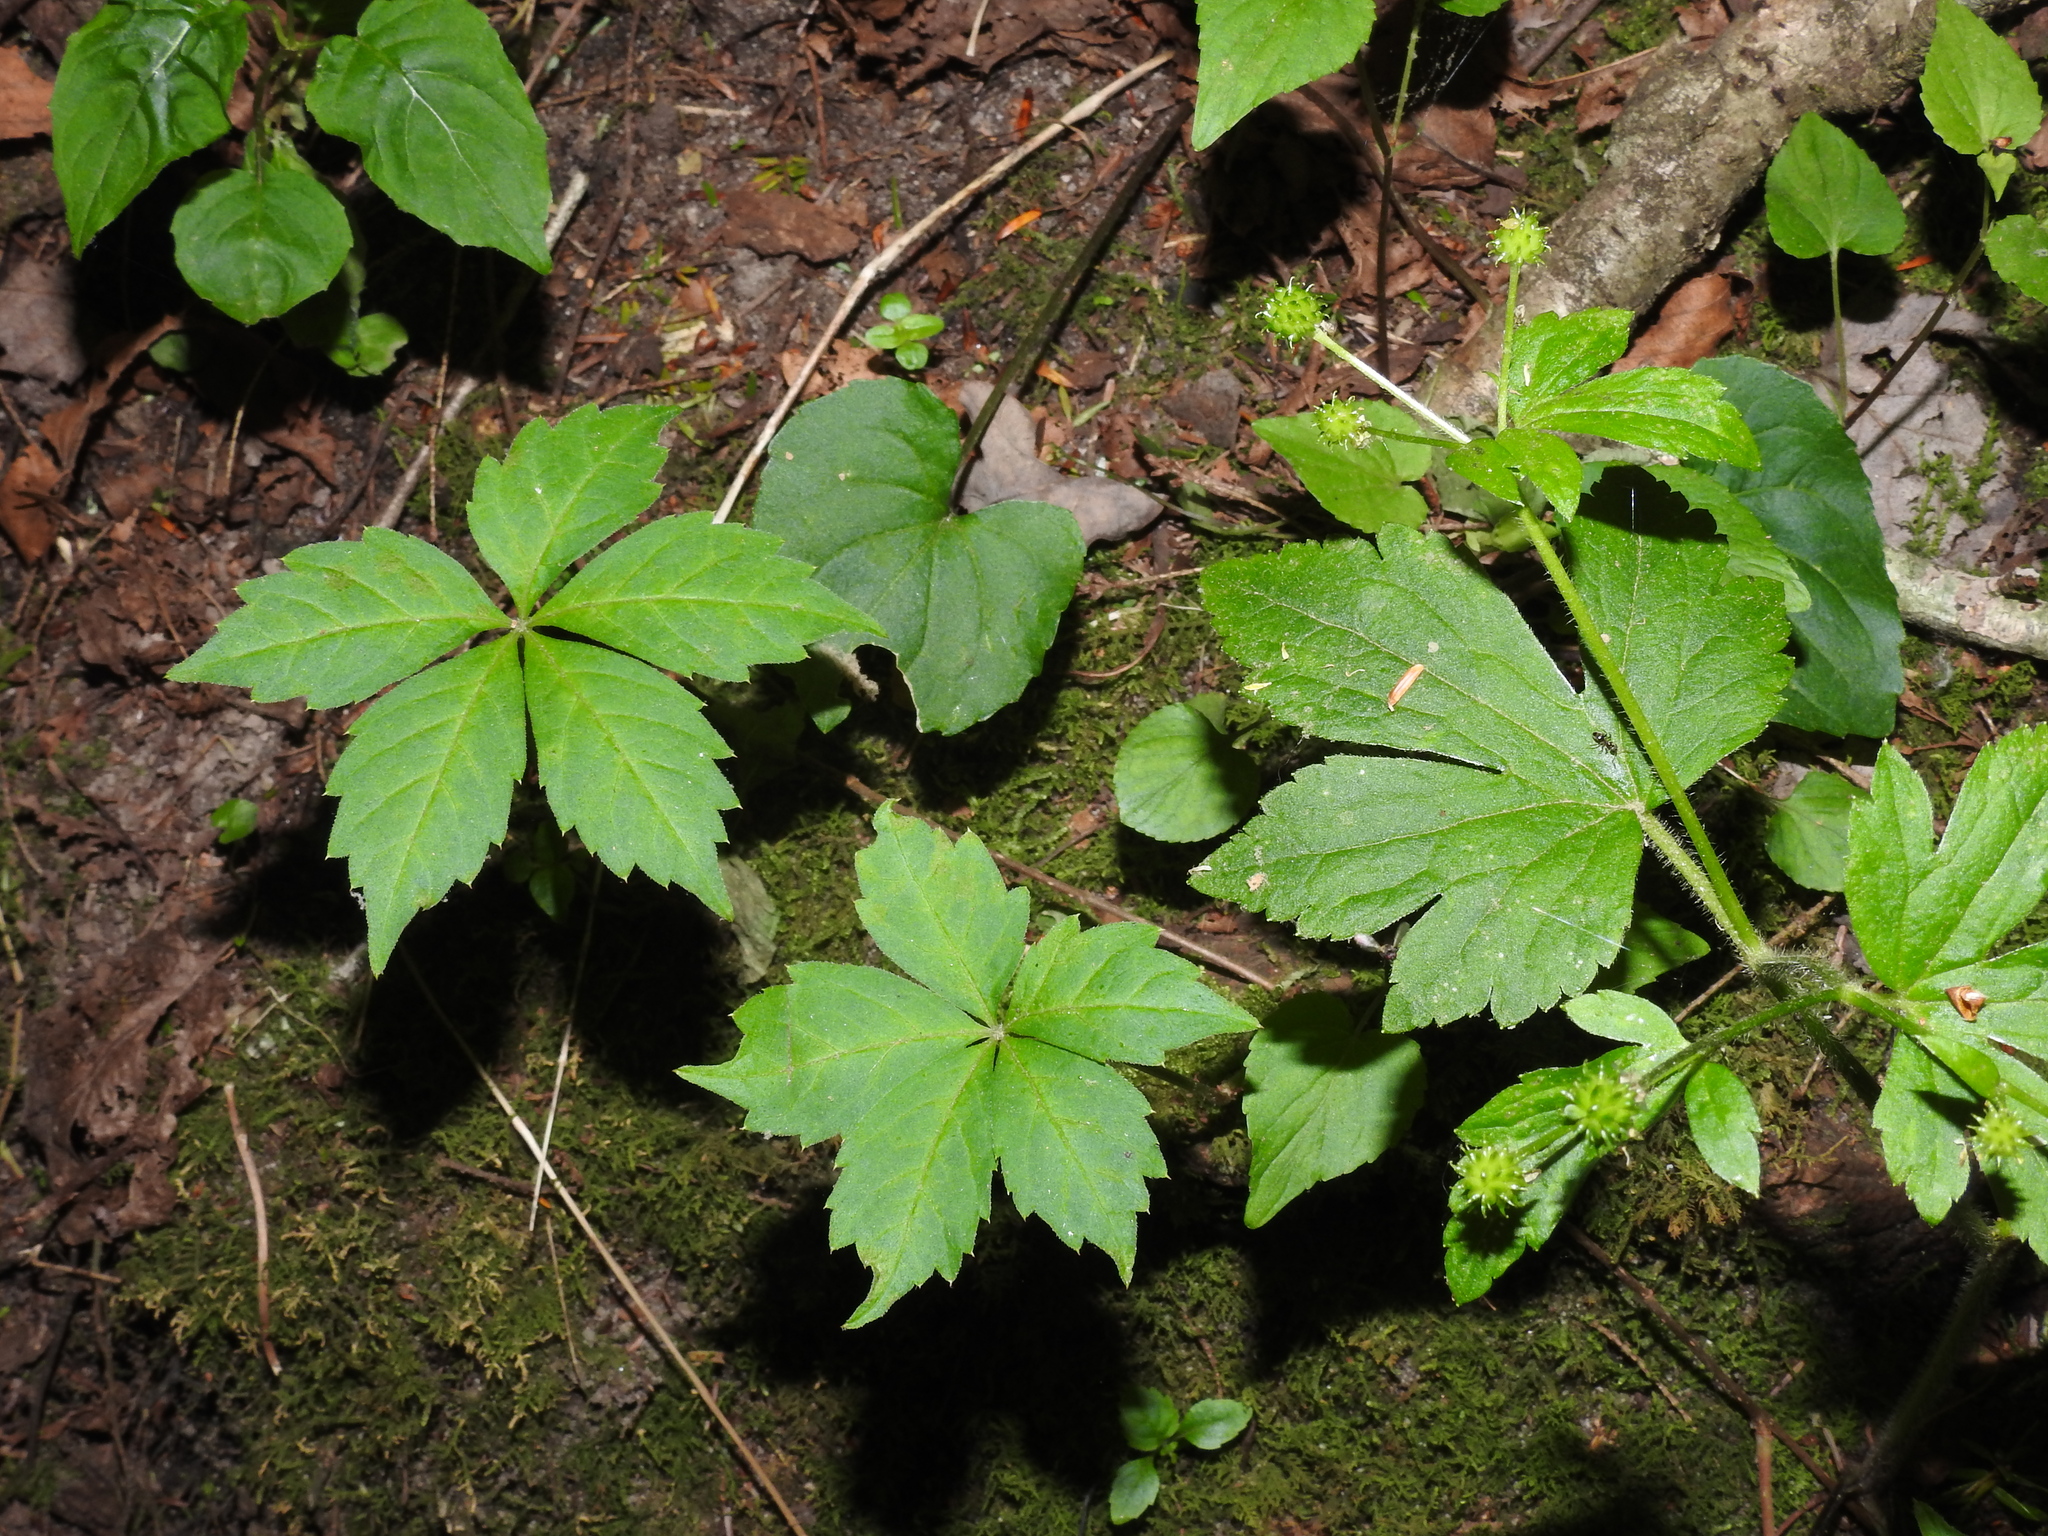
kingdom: Plantae
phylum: Tracheophyta
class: Magnoliopsida
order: Vitales
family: Vitaceae
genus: Parthenocissus
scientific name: Parthenocissus quinquefolia
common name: Virginia-creeper
